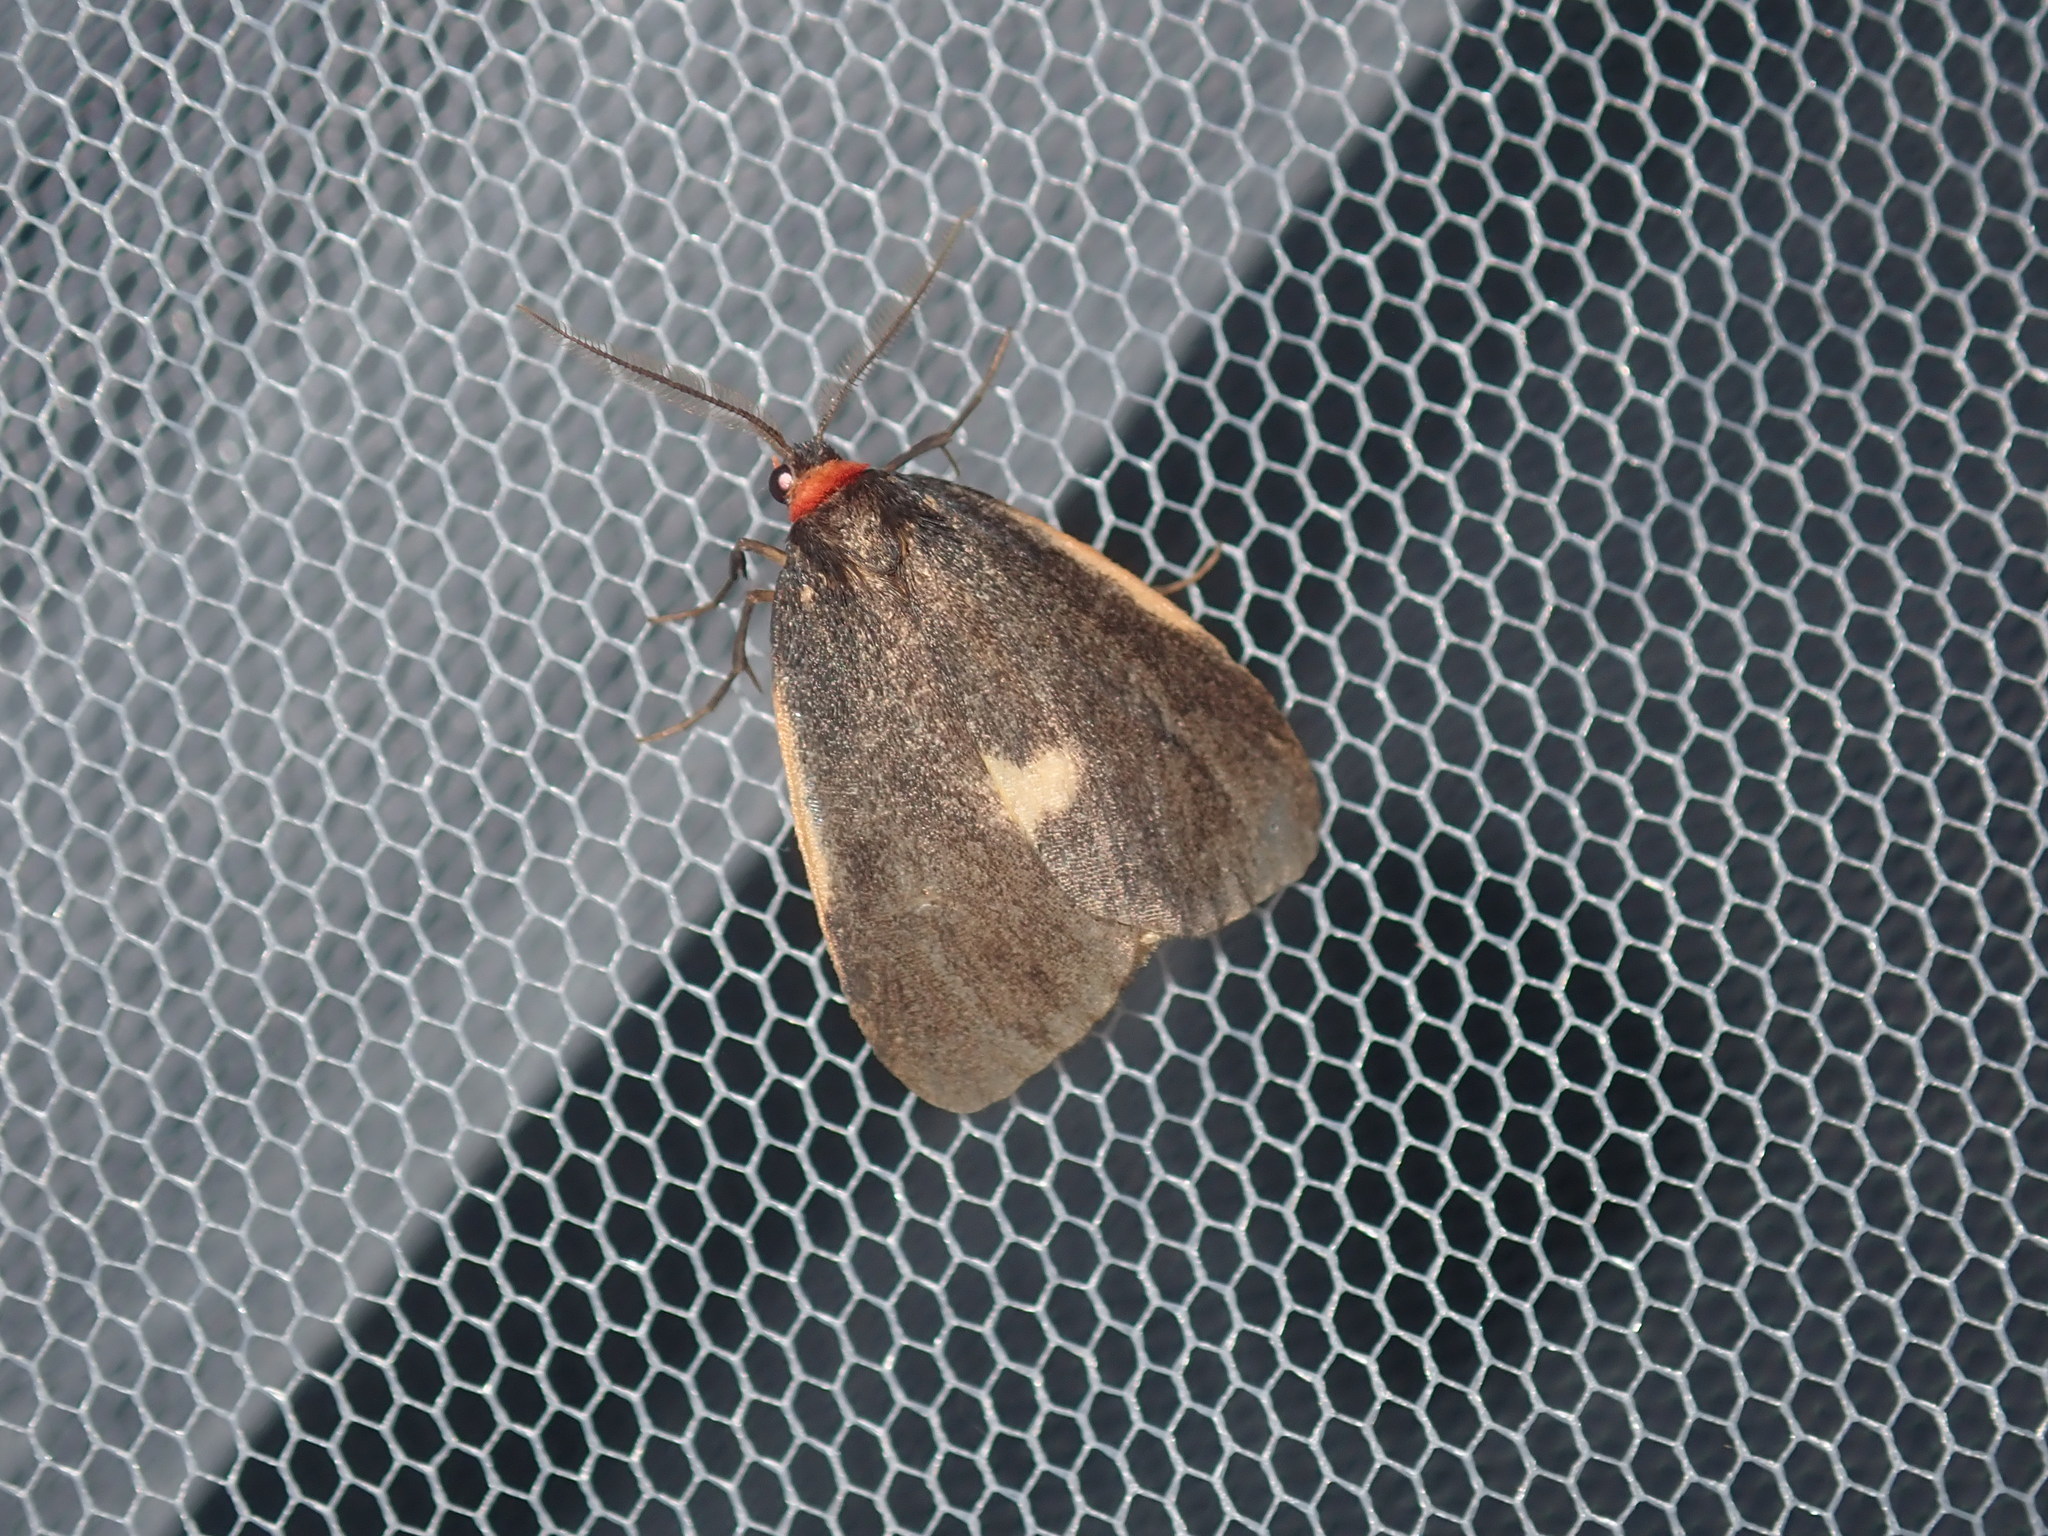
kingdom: Animalia
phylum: Arthropoda
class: Insecta
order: Lepidoptera
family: Erebidae
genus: Castulo
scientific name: Castulo doubledayi
